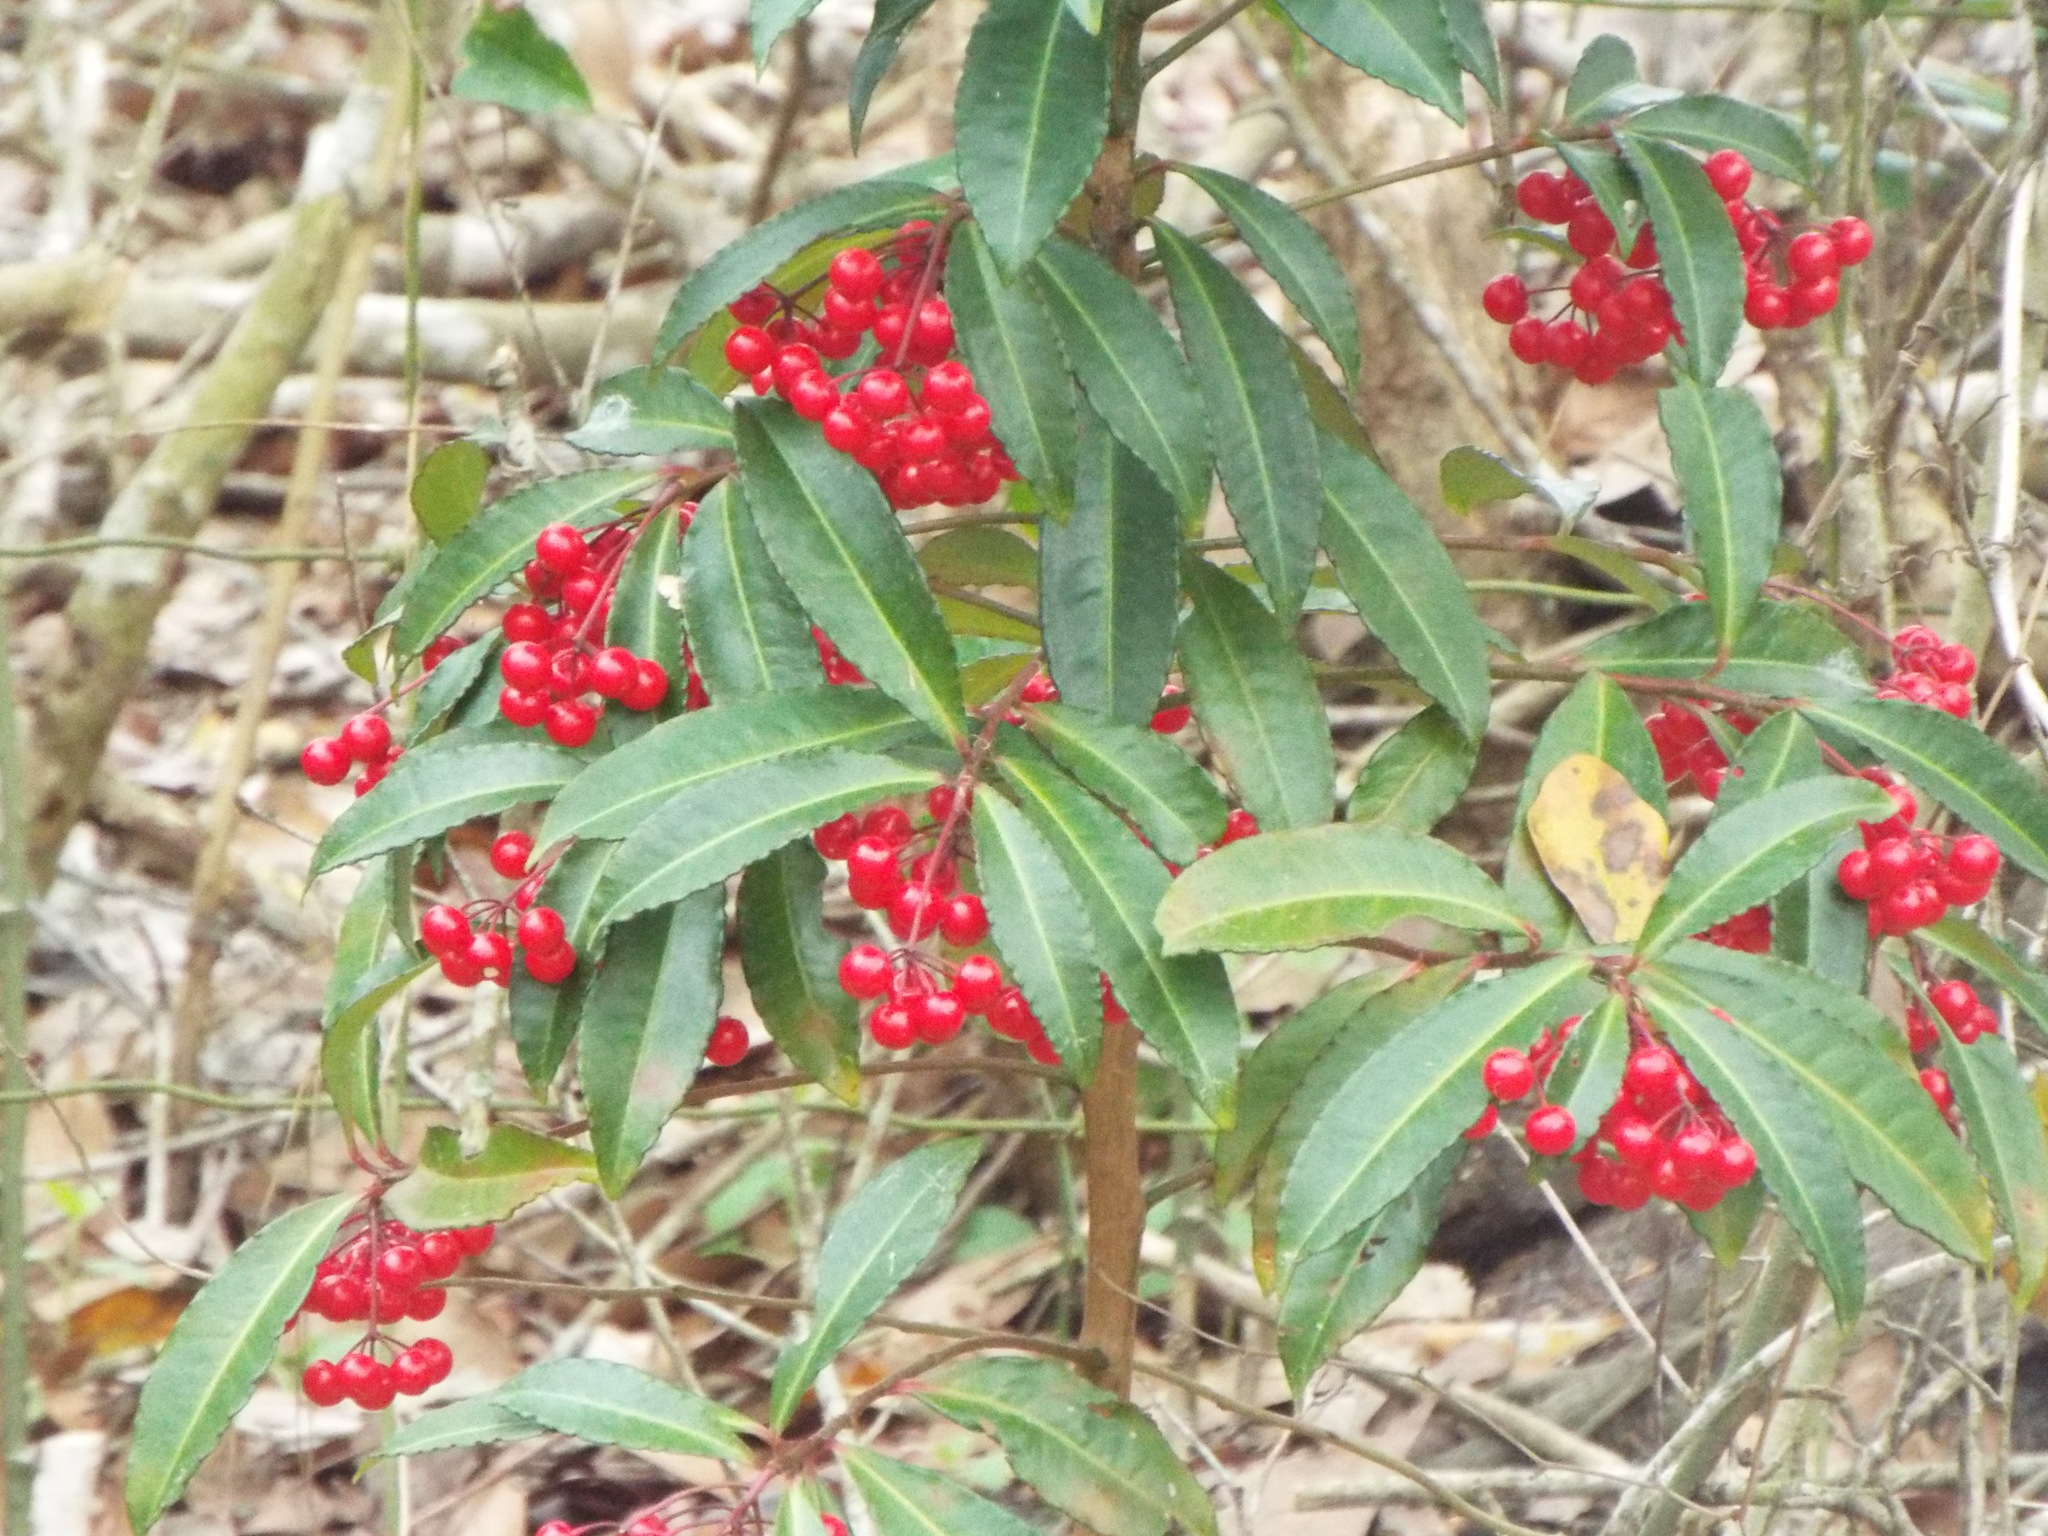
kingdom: Plantae
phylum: Tracheophyta
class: Magnoliopsida
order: Ericales
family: Primulaceae
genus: Ardisia
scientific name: Ardisia crenata
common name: Hen's eyes
